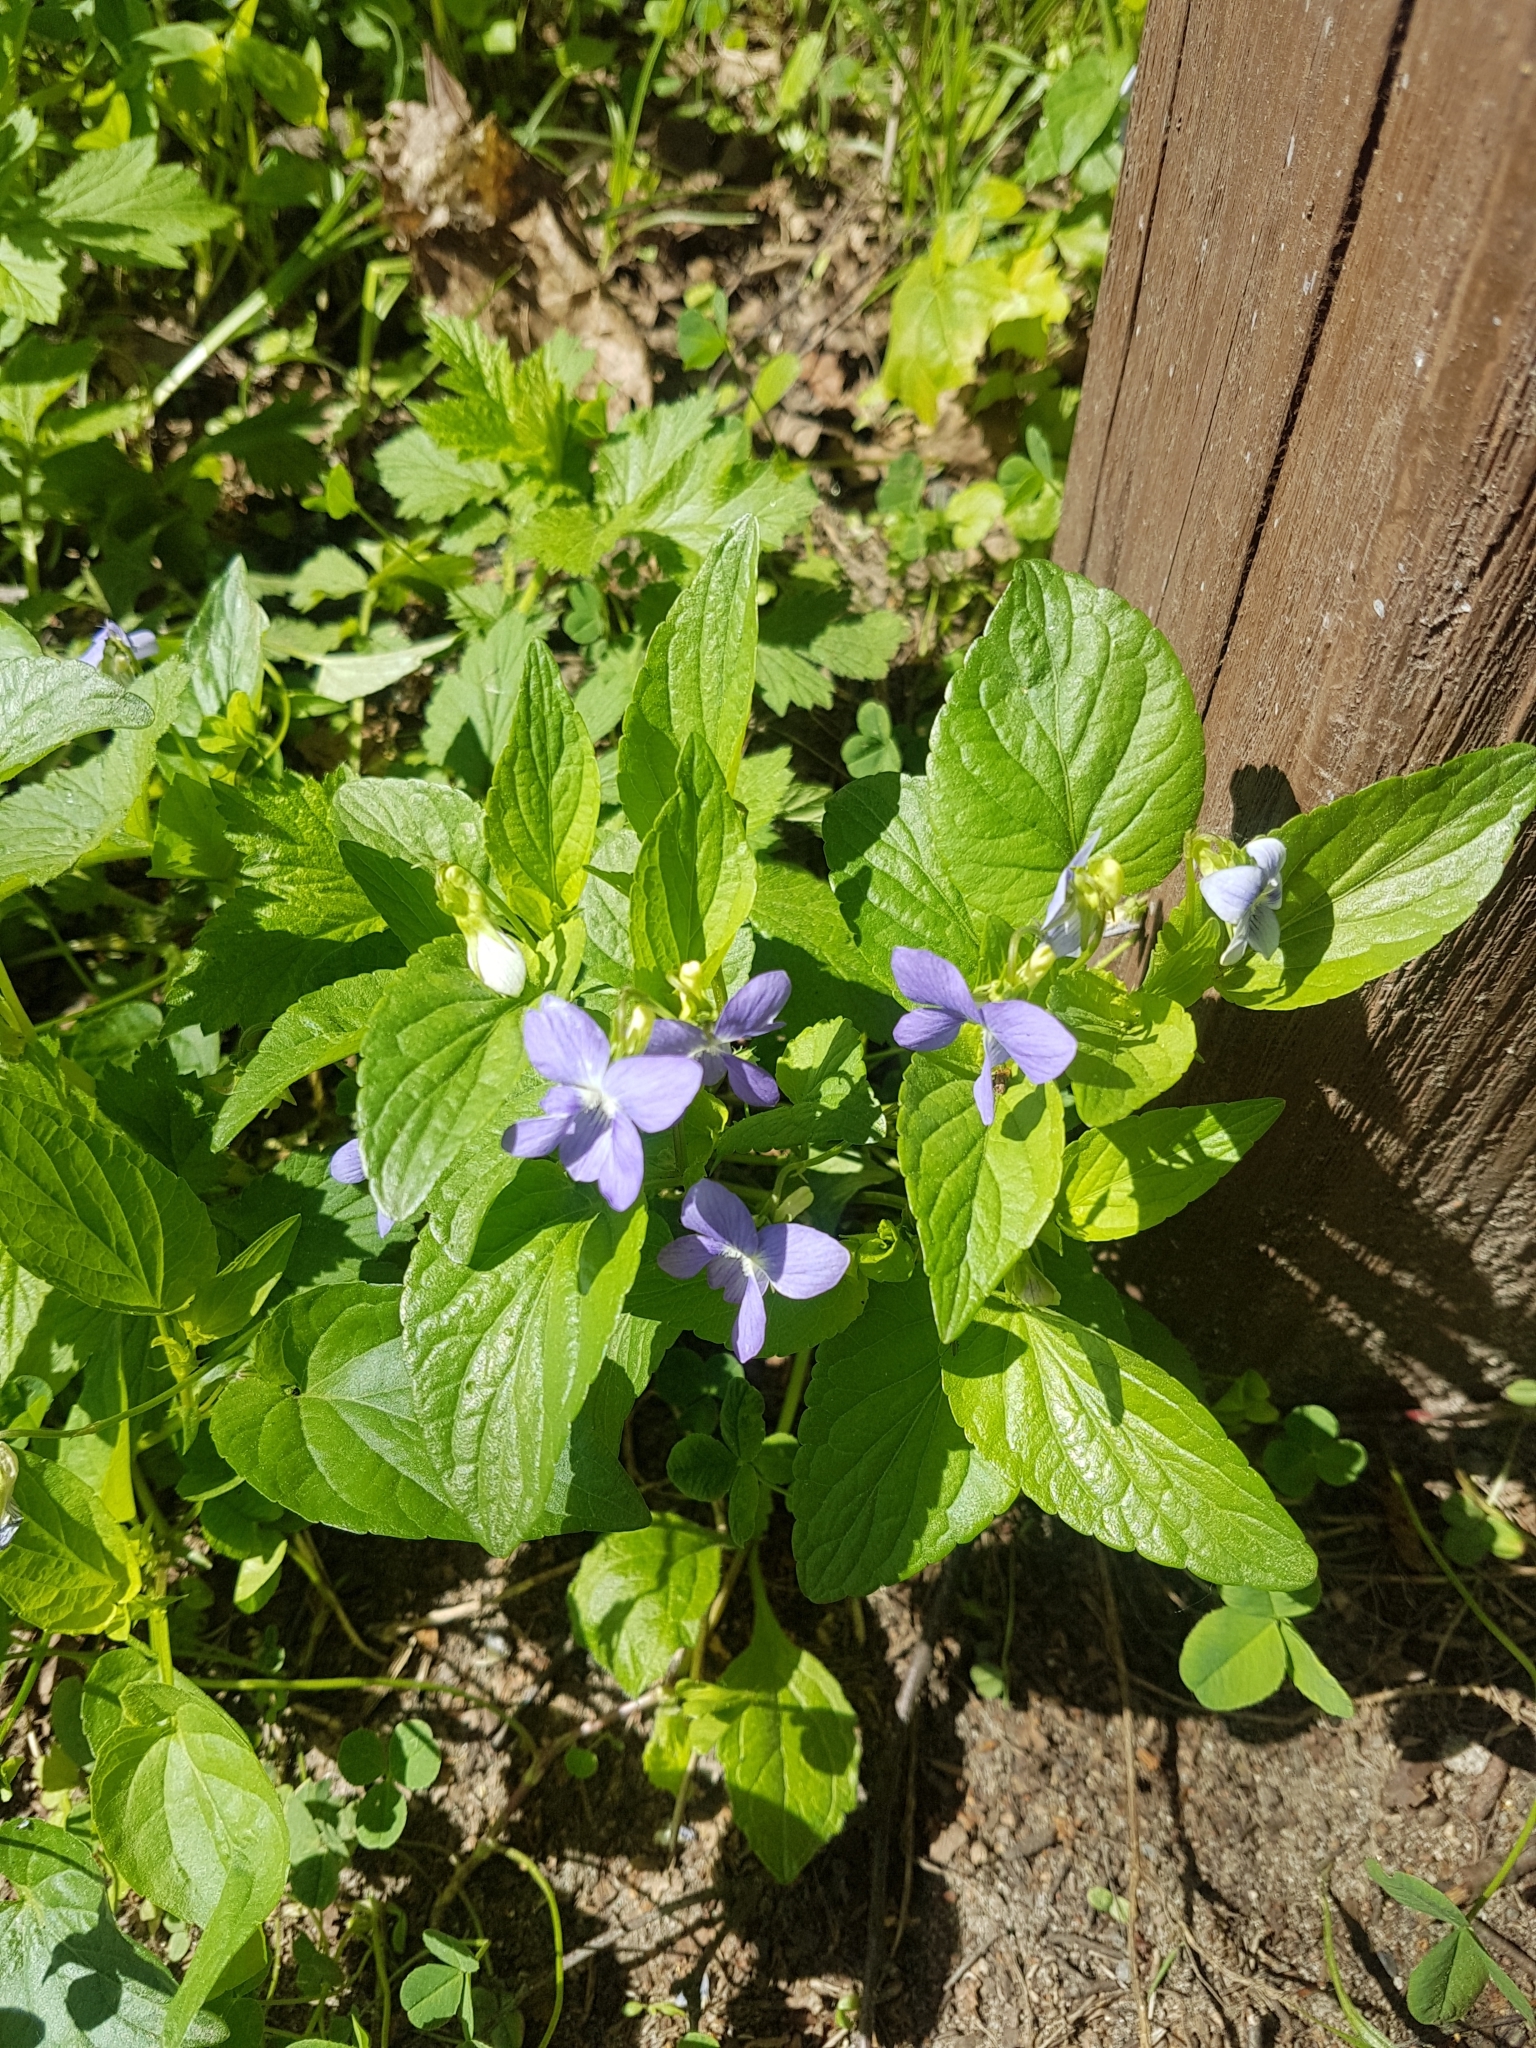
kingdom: Plantae
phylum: Tracheophyta
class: Magnoliopsida
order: Malpighiales
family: Violaceae
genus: Viola
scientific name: Viola canina
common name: Heath dog-violet
